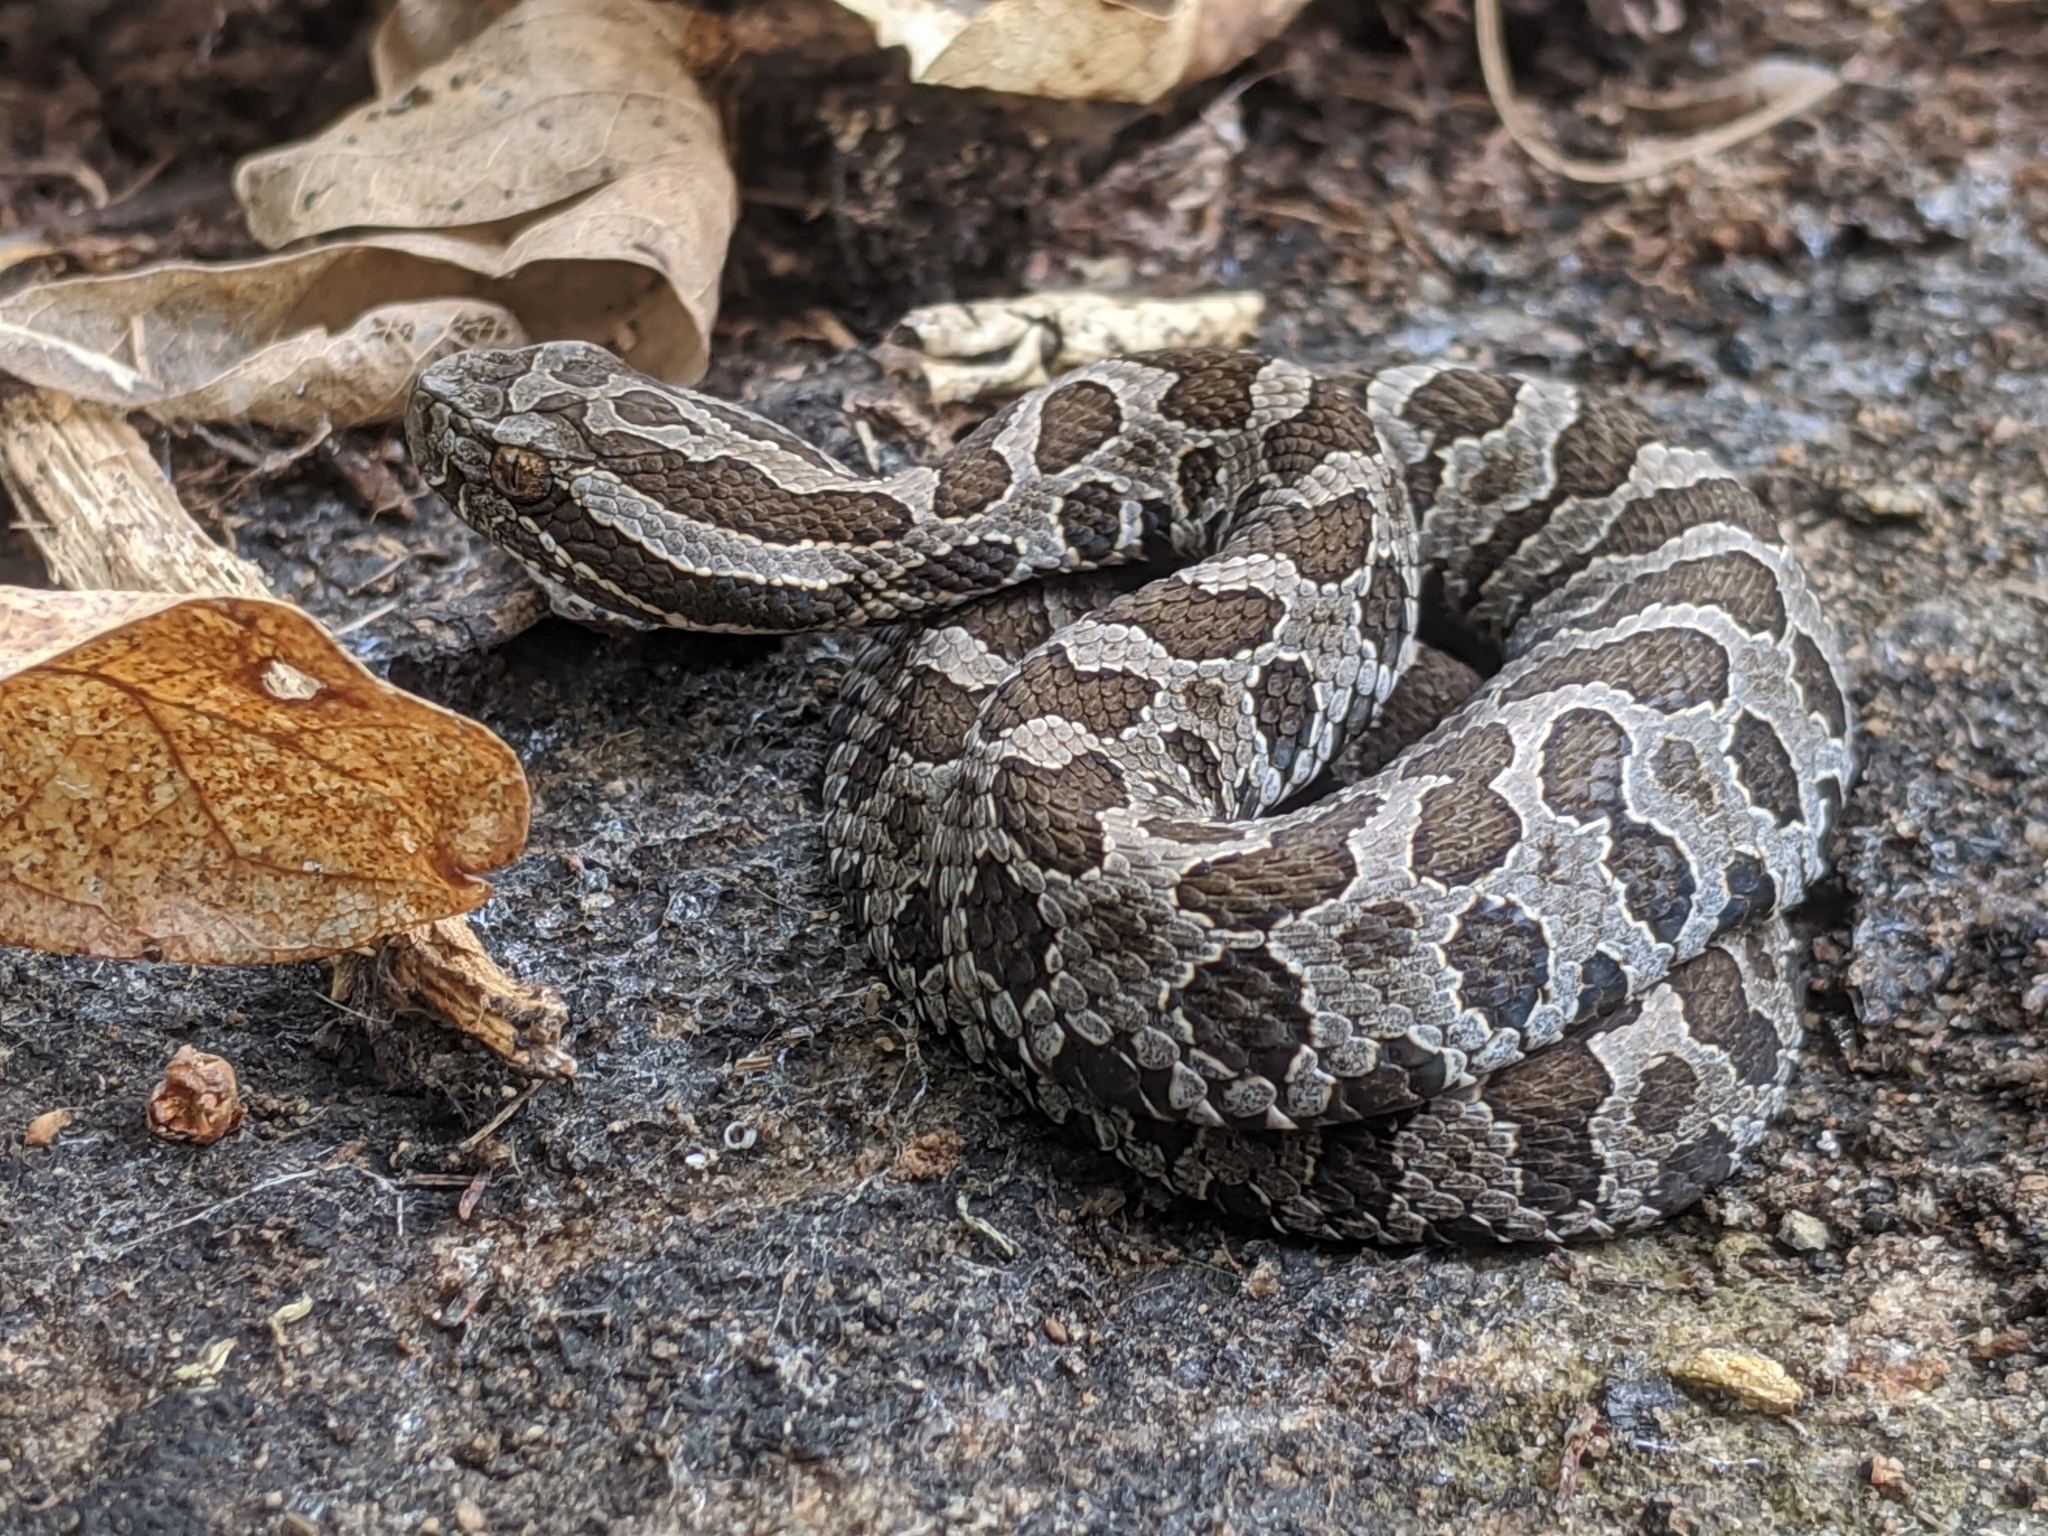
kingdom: Animalia
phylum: Chordata
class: Squamata
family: Viperidae
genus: Sistrurus
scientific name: Sistrurus catenatus
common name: Massasauga
